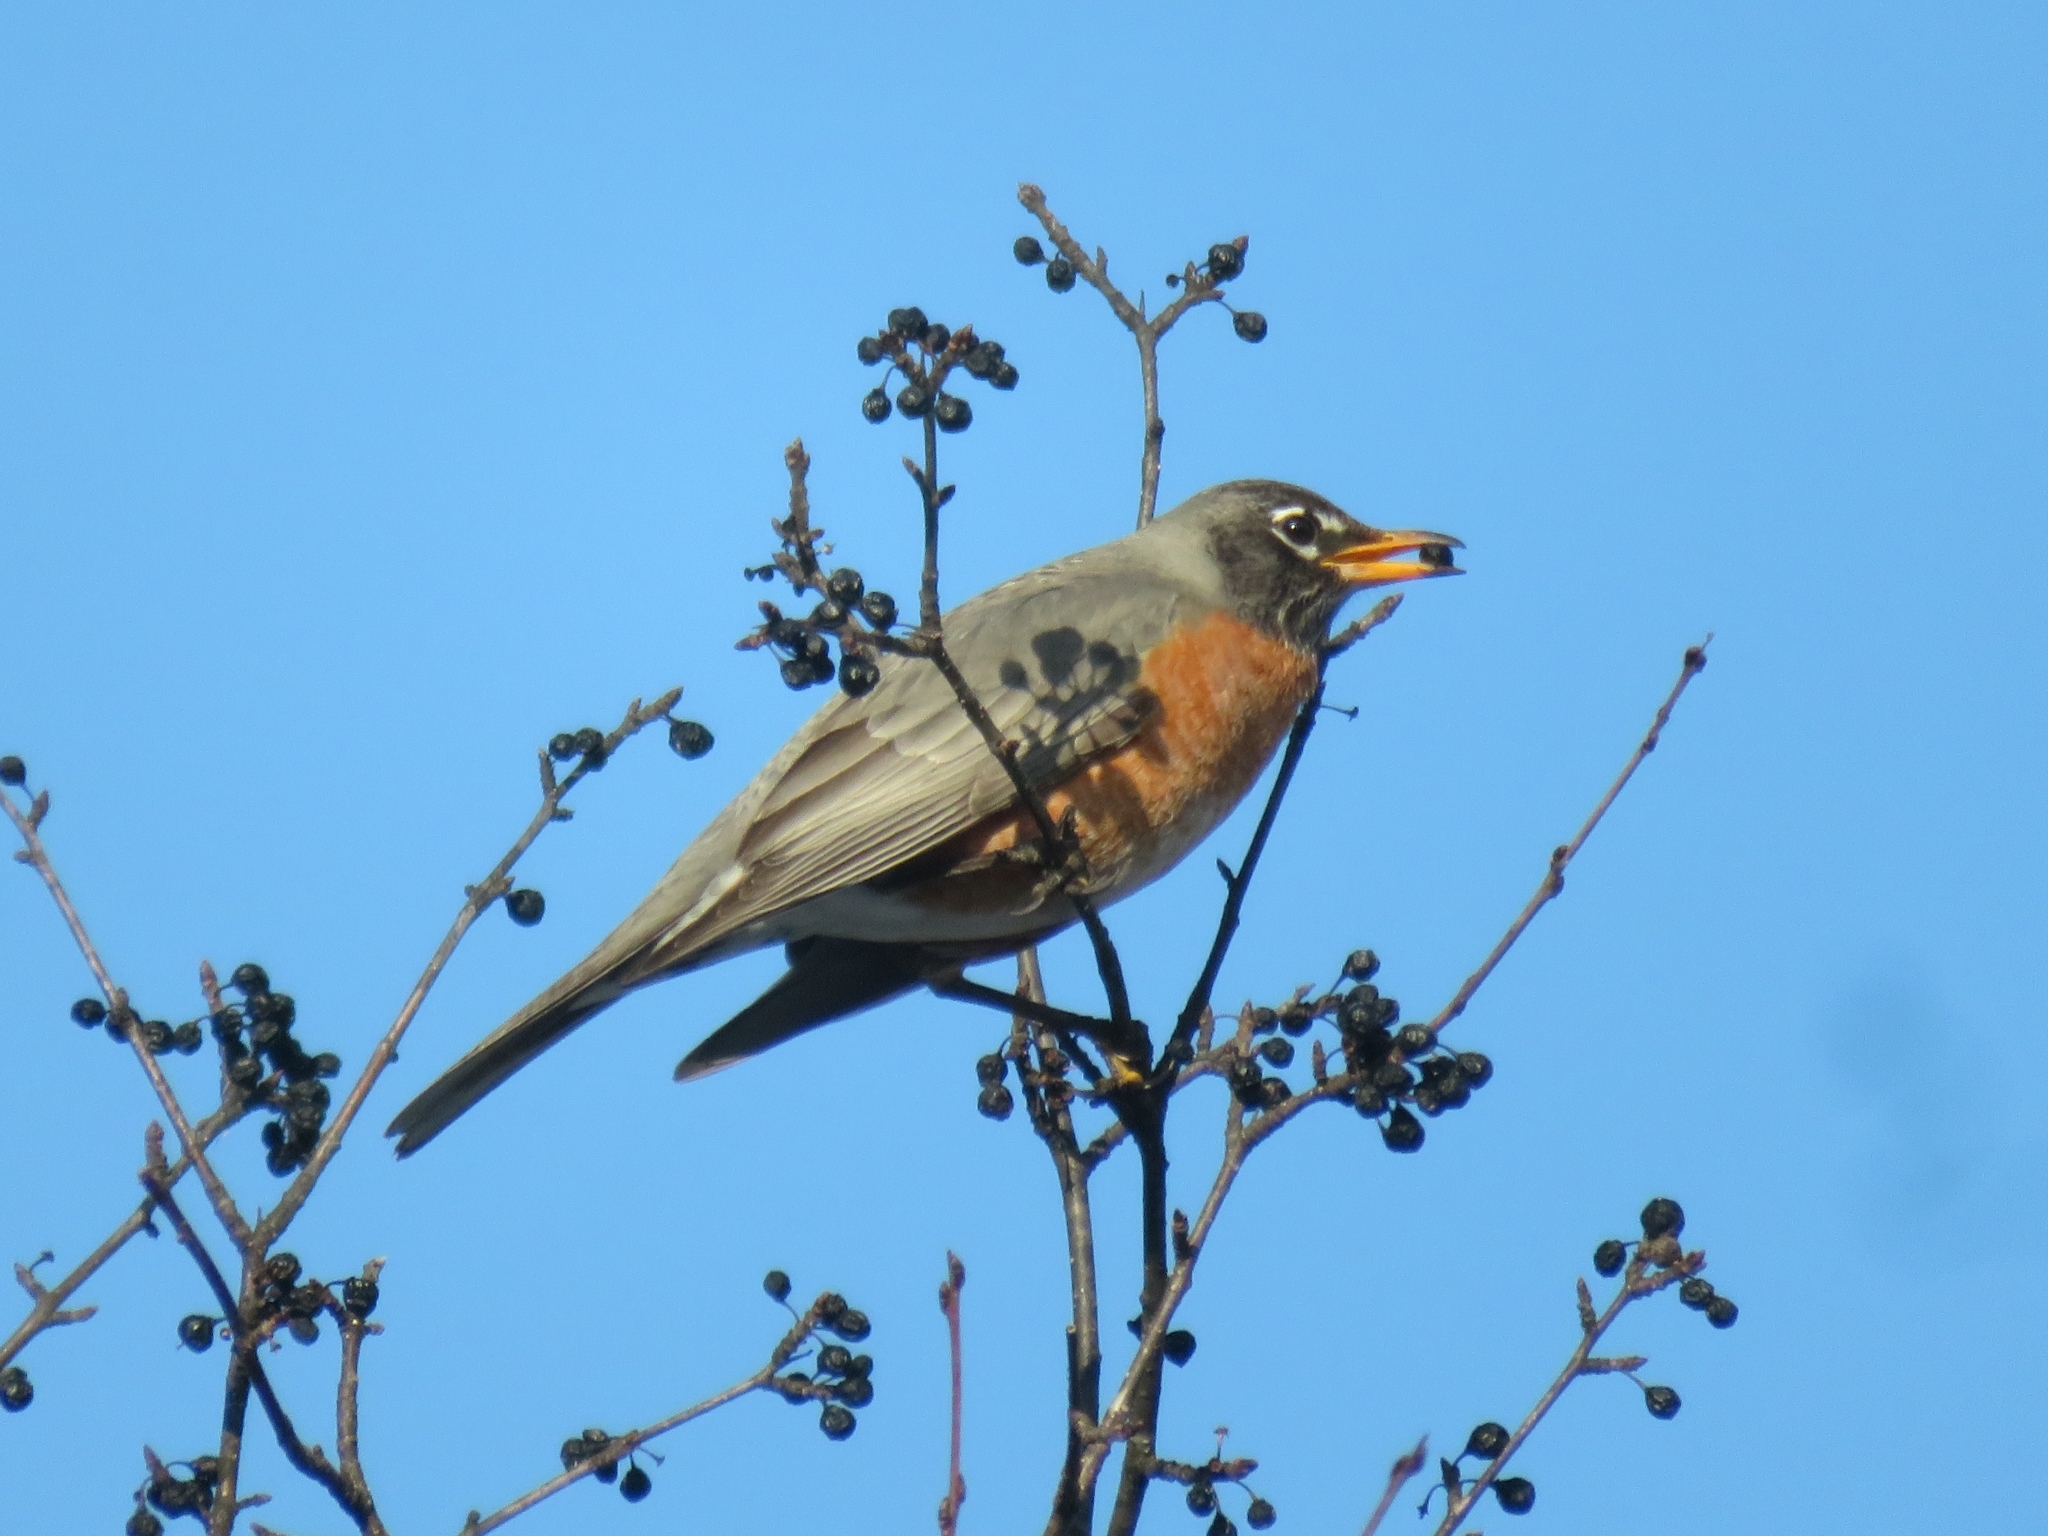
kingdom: Animalia
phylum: Chordata
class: Aves
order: Passeriformes
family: Turdidae
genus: Turdus
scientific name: Turdus migratorius
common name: American robin
